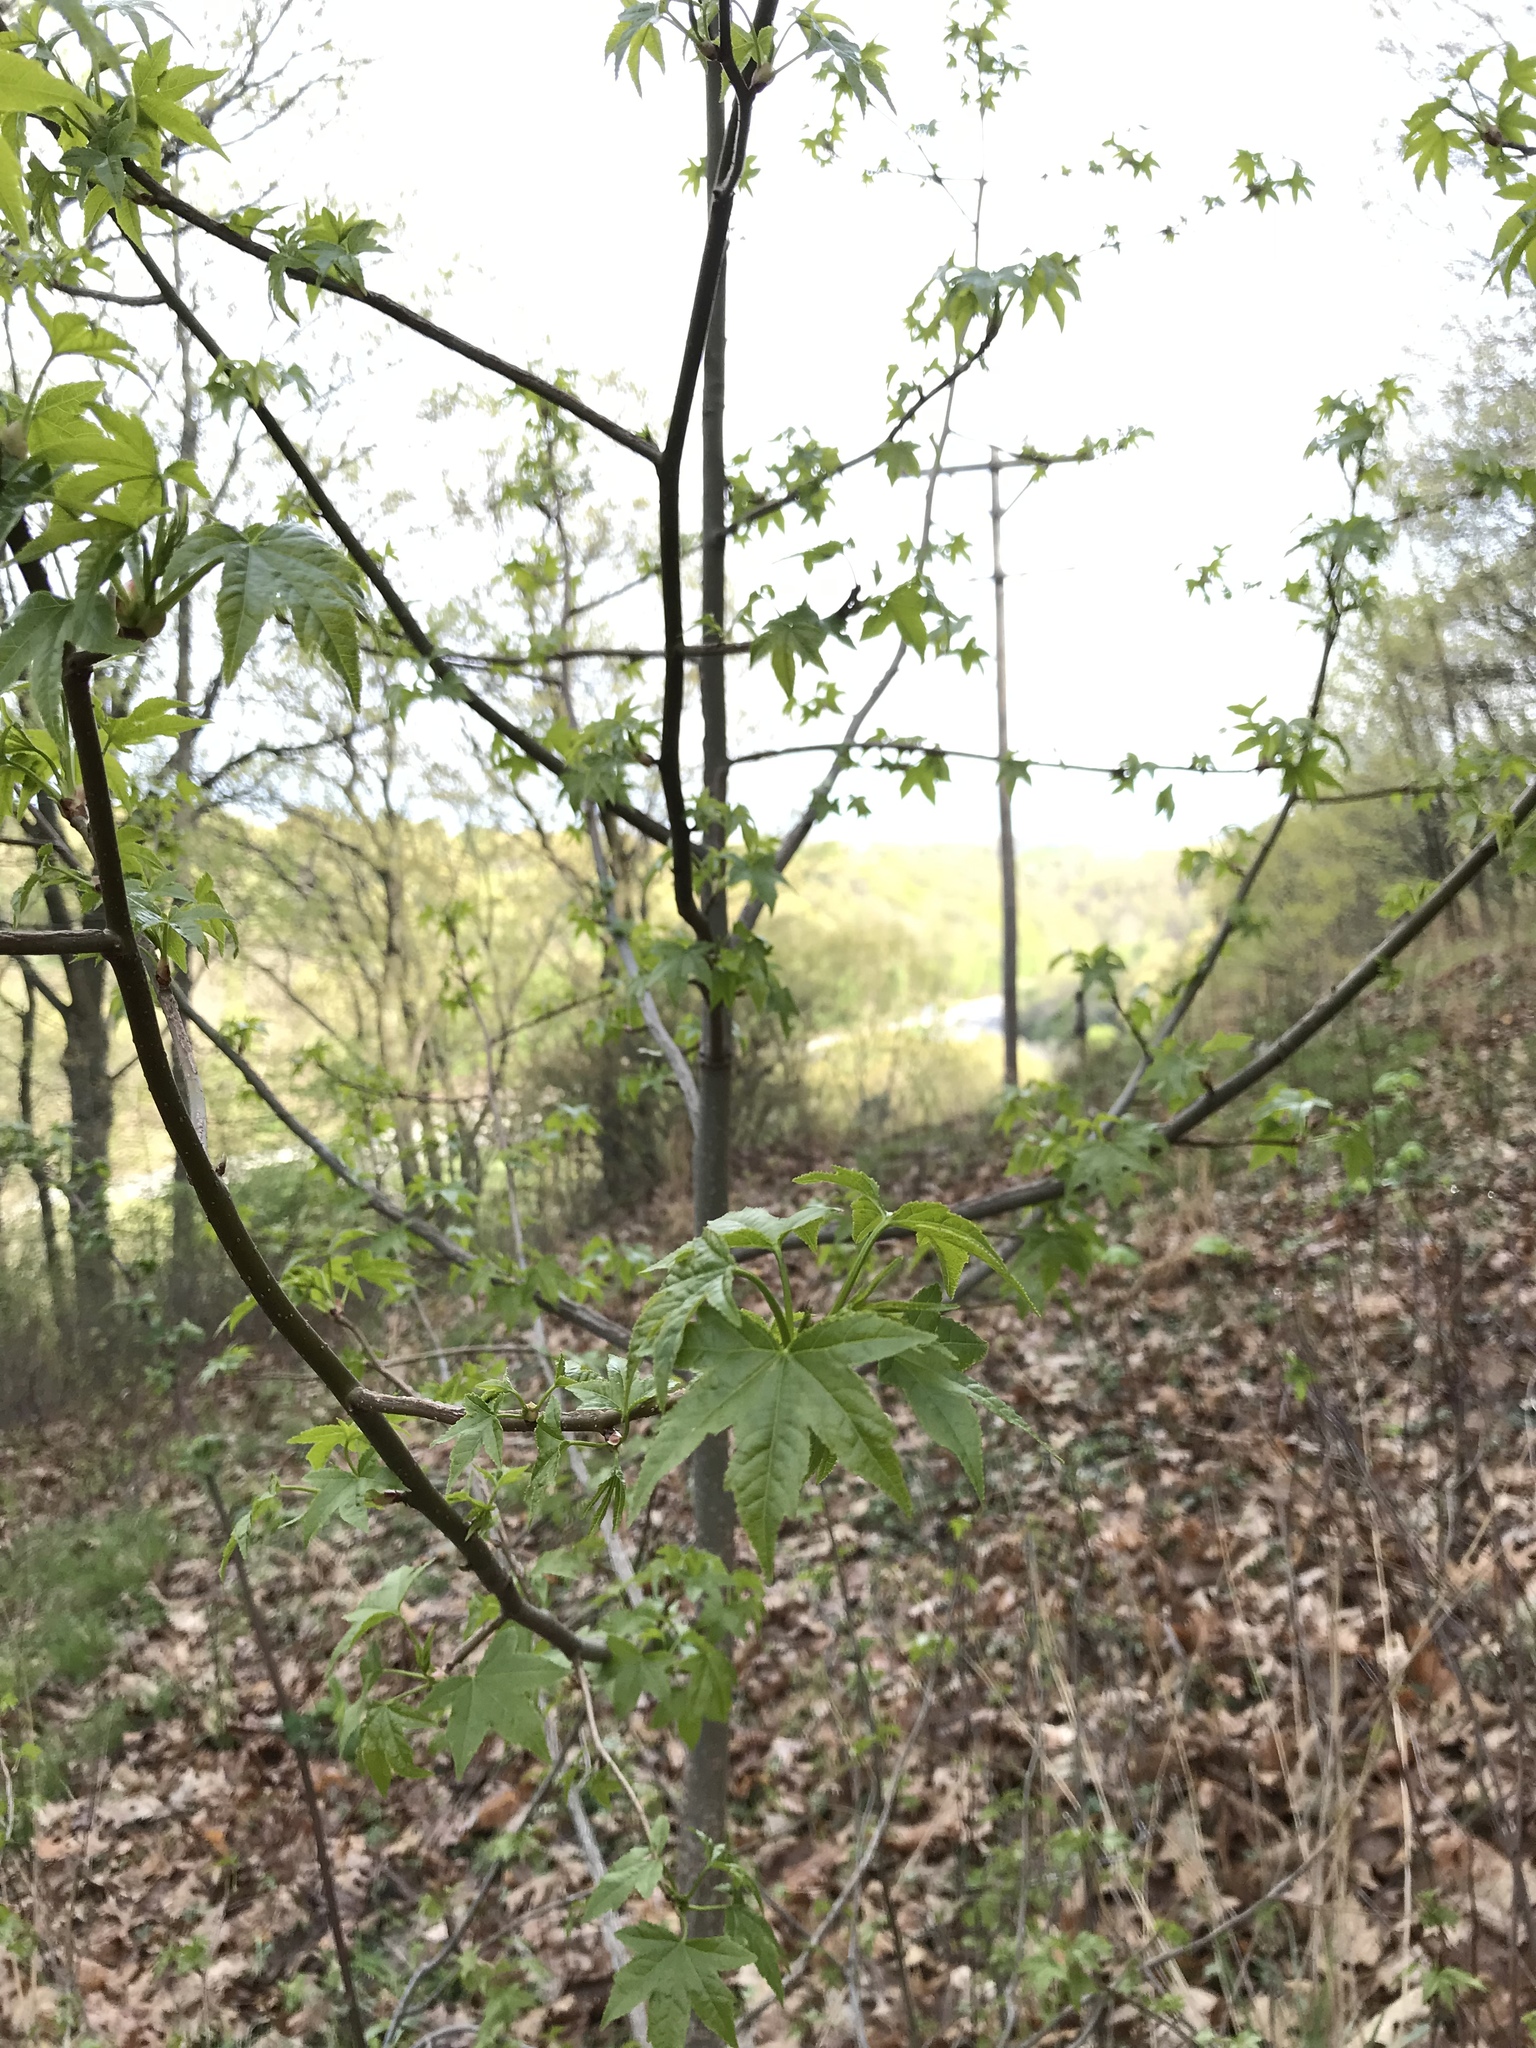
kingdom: Plantae
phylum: Tracheophyta
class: Magnoliopsida
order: Saxifragales
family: Altingiaceae
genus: Liquidambar
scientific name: Liquidambar styraciflua
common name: Sweet gum
